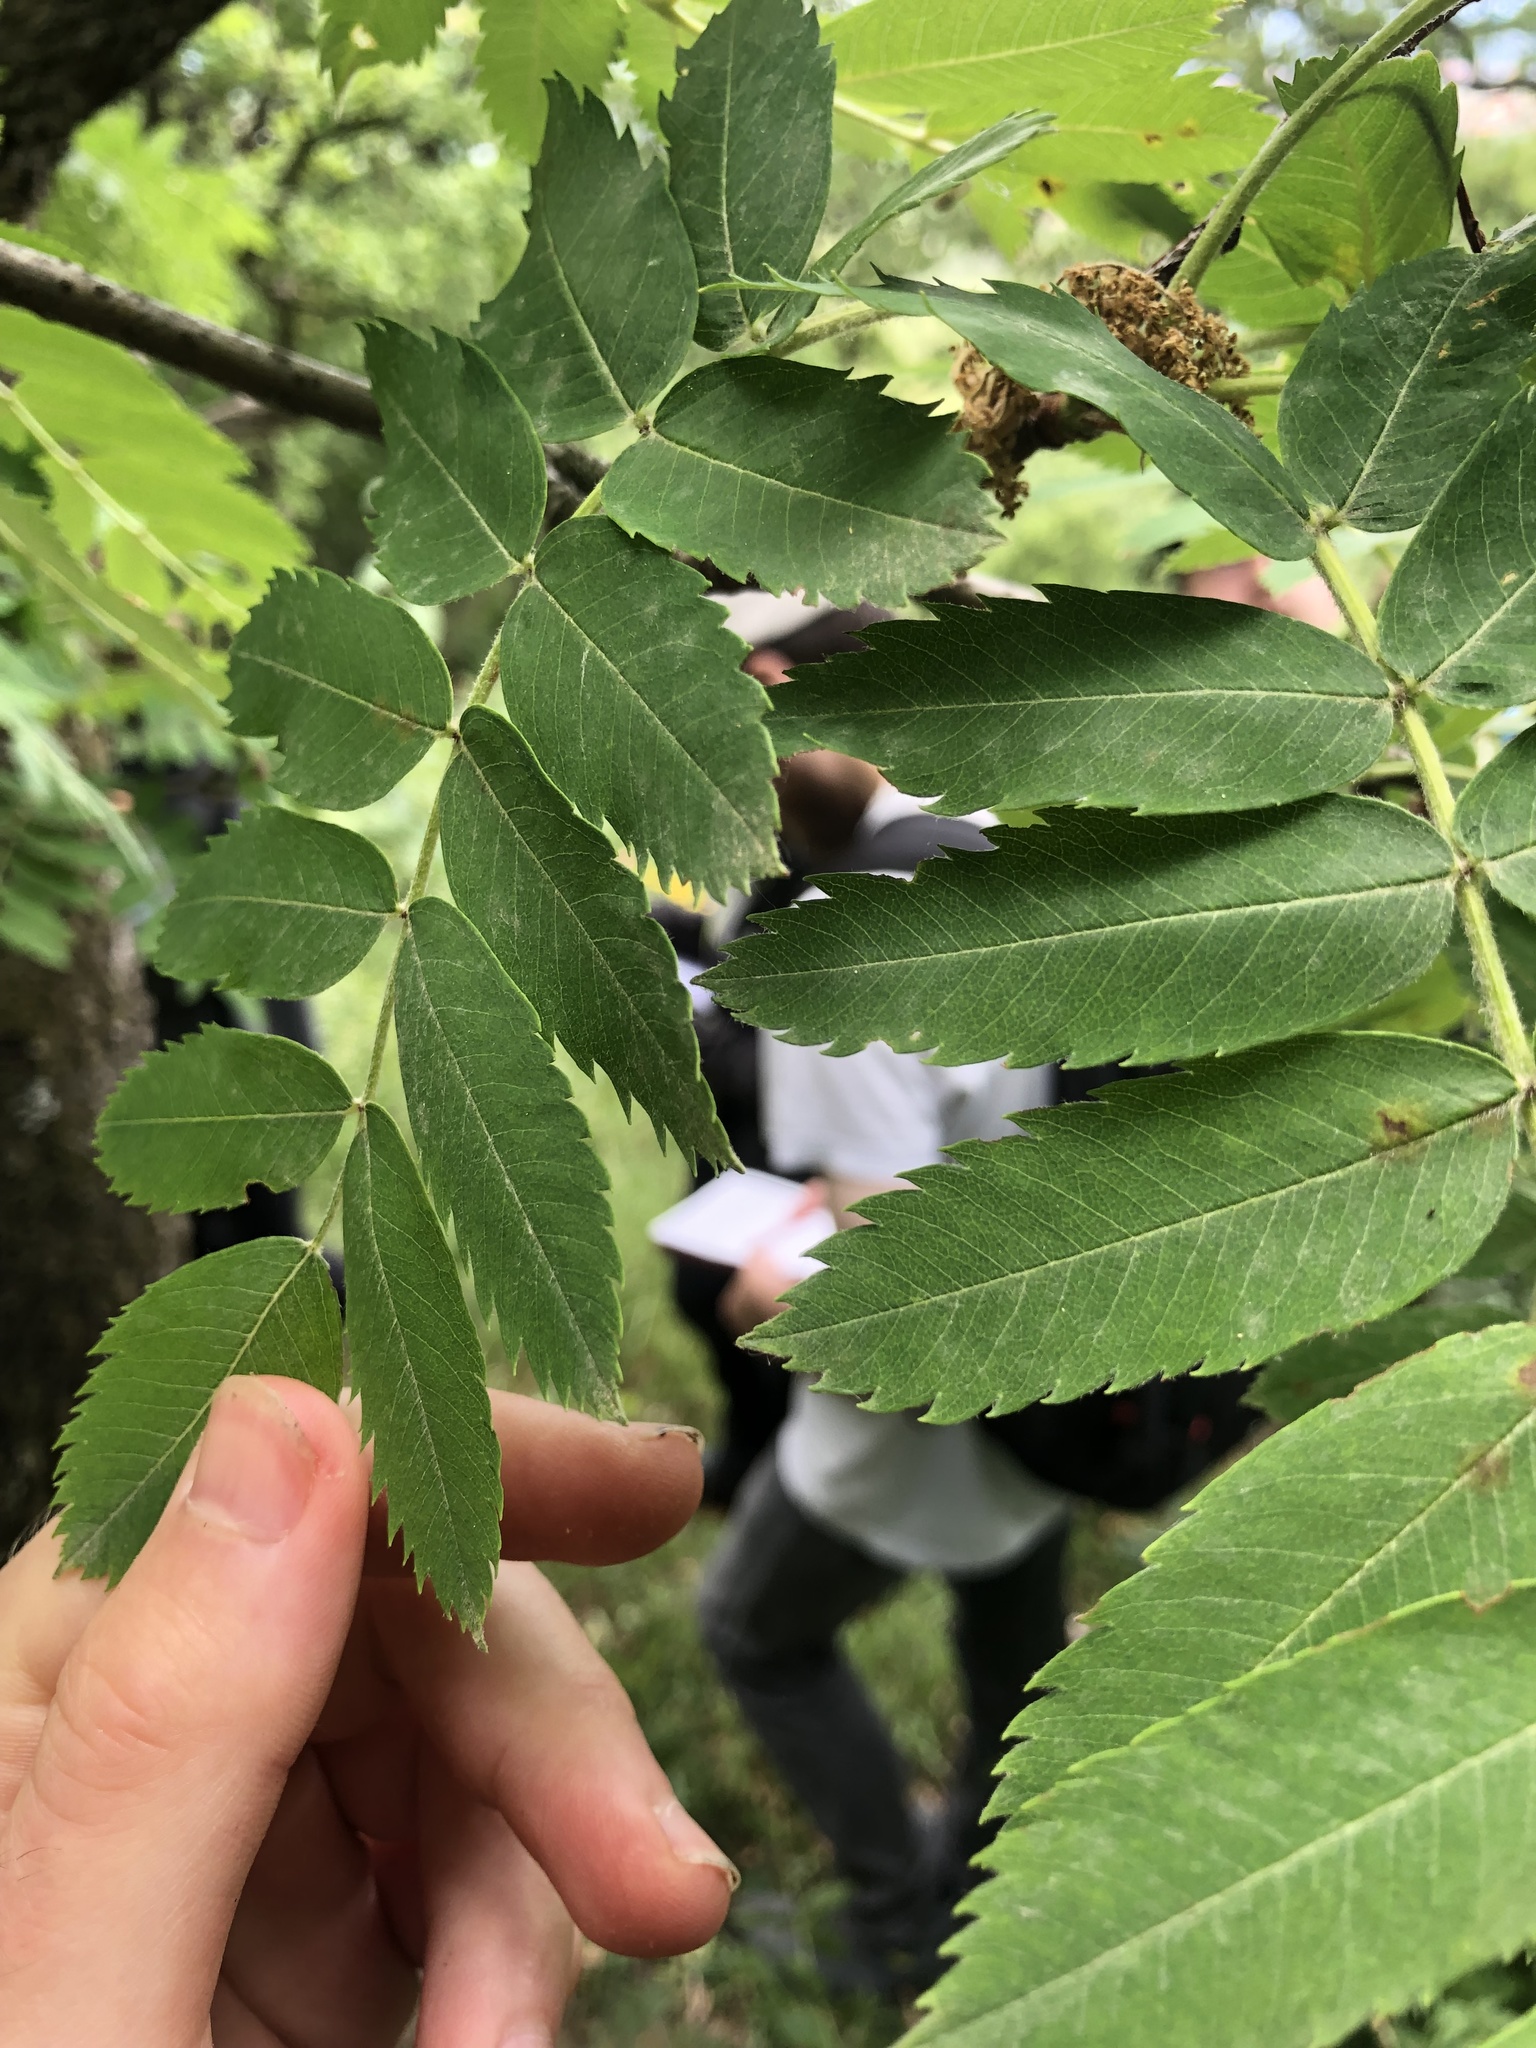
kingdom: Plantae
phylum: Tracheophyta
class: Magnoliopsida
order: Rosales
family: Rosaceae
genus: Cormus
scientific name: Cormus domestica
